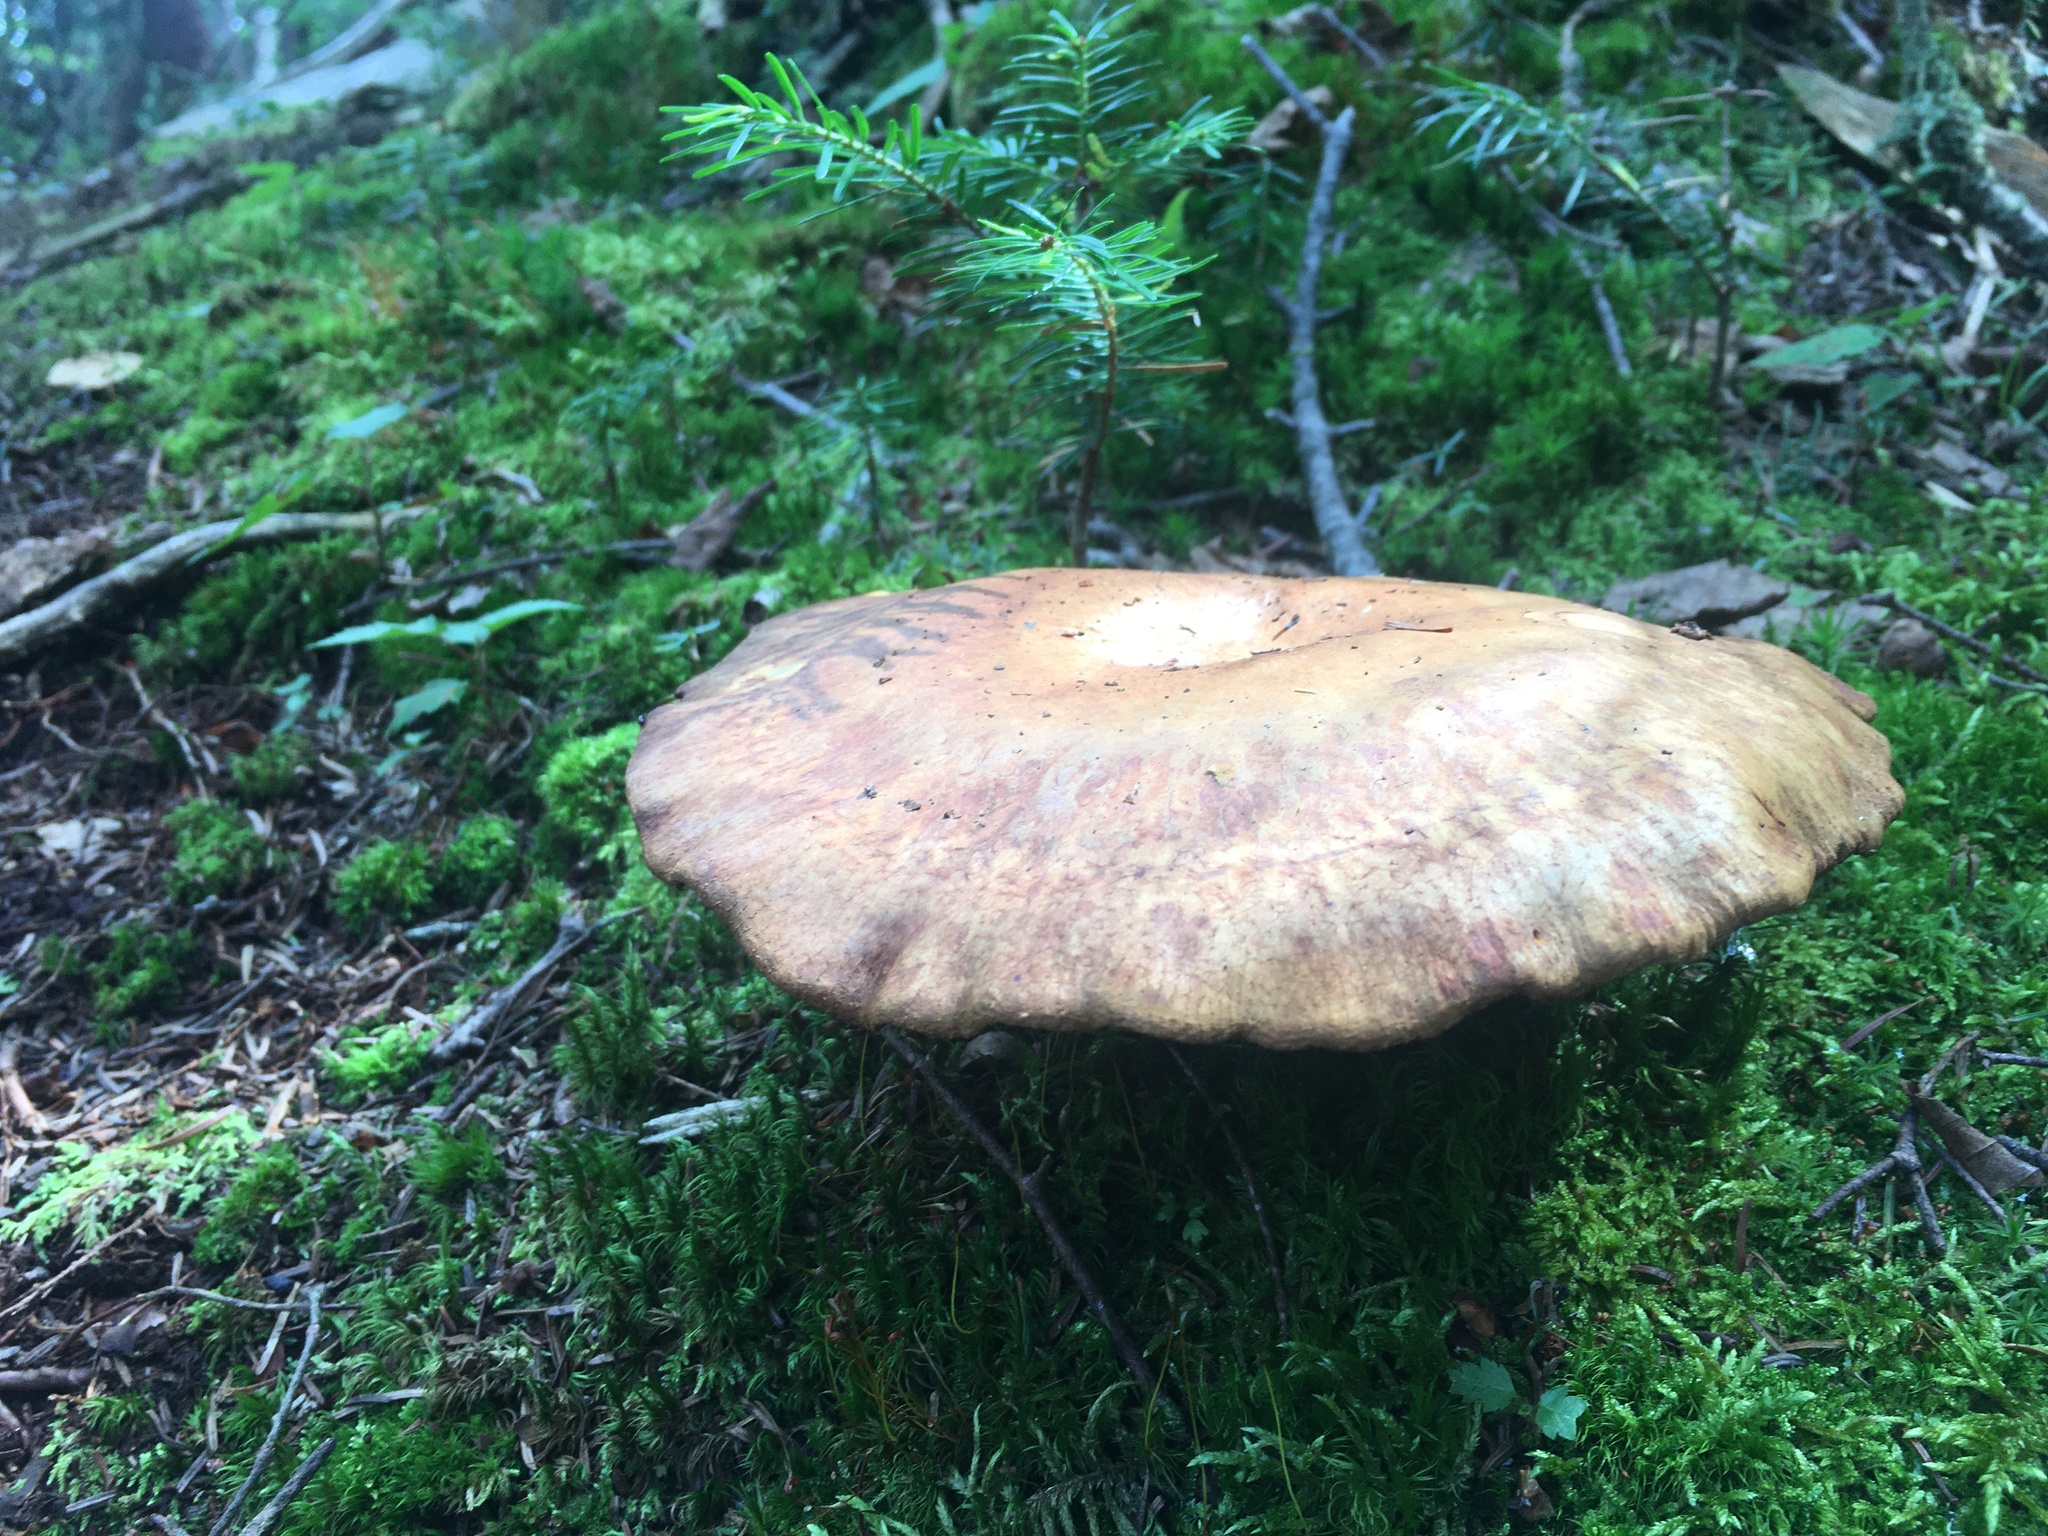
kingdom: Fungi
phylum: Basidiomycota
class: Agaricomycetes
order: Boletales
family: Paxillaceae
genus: Paxillus
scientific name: Paxillus involutus
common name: Brown roll rim
